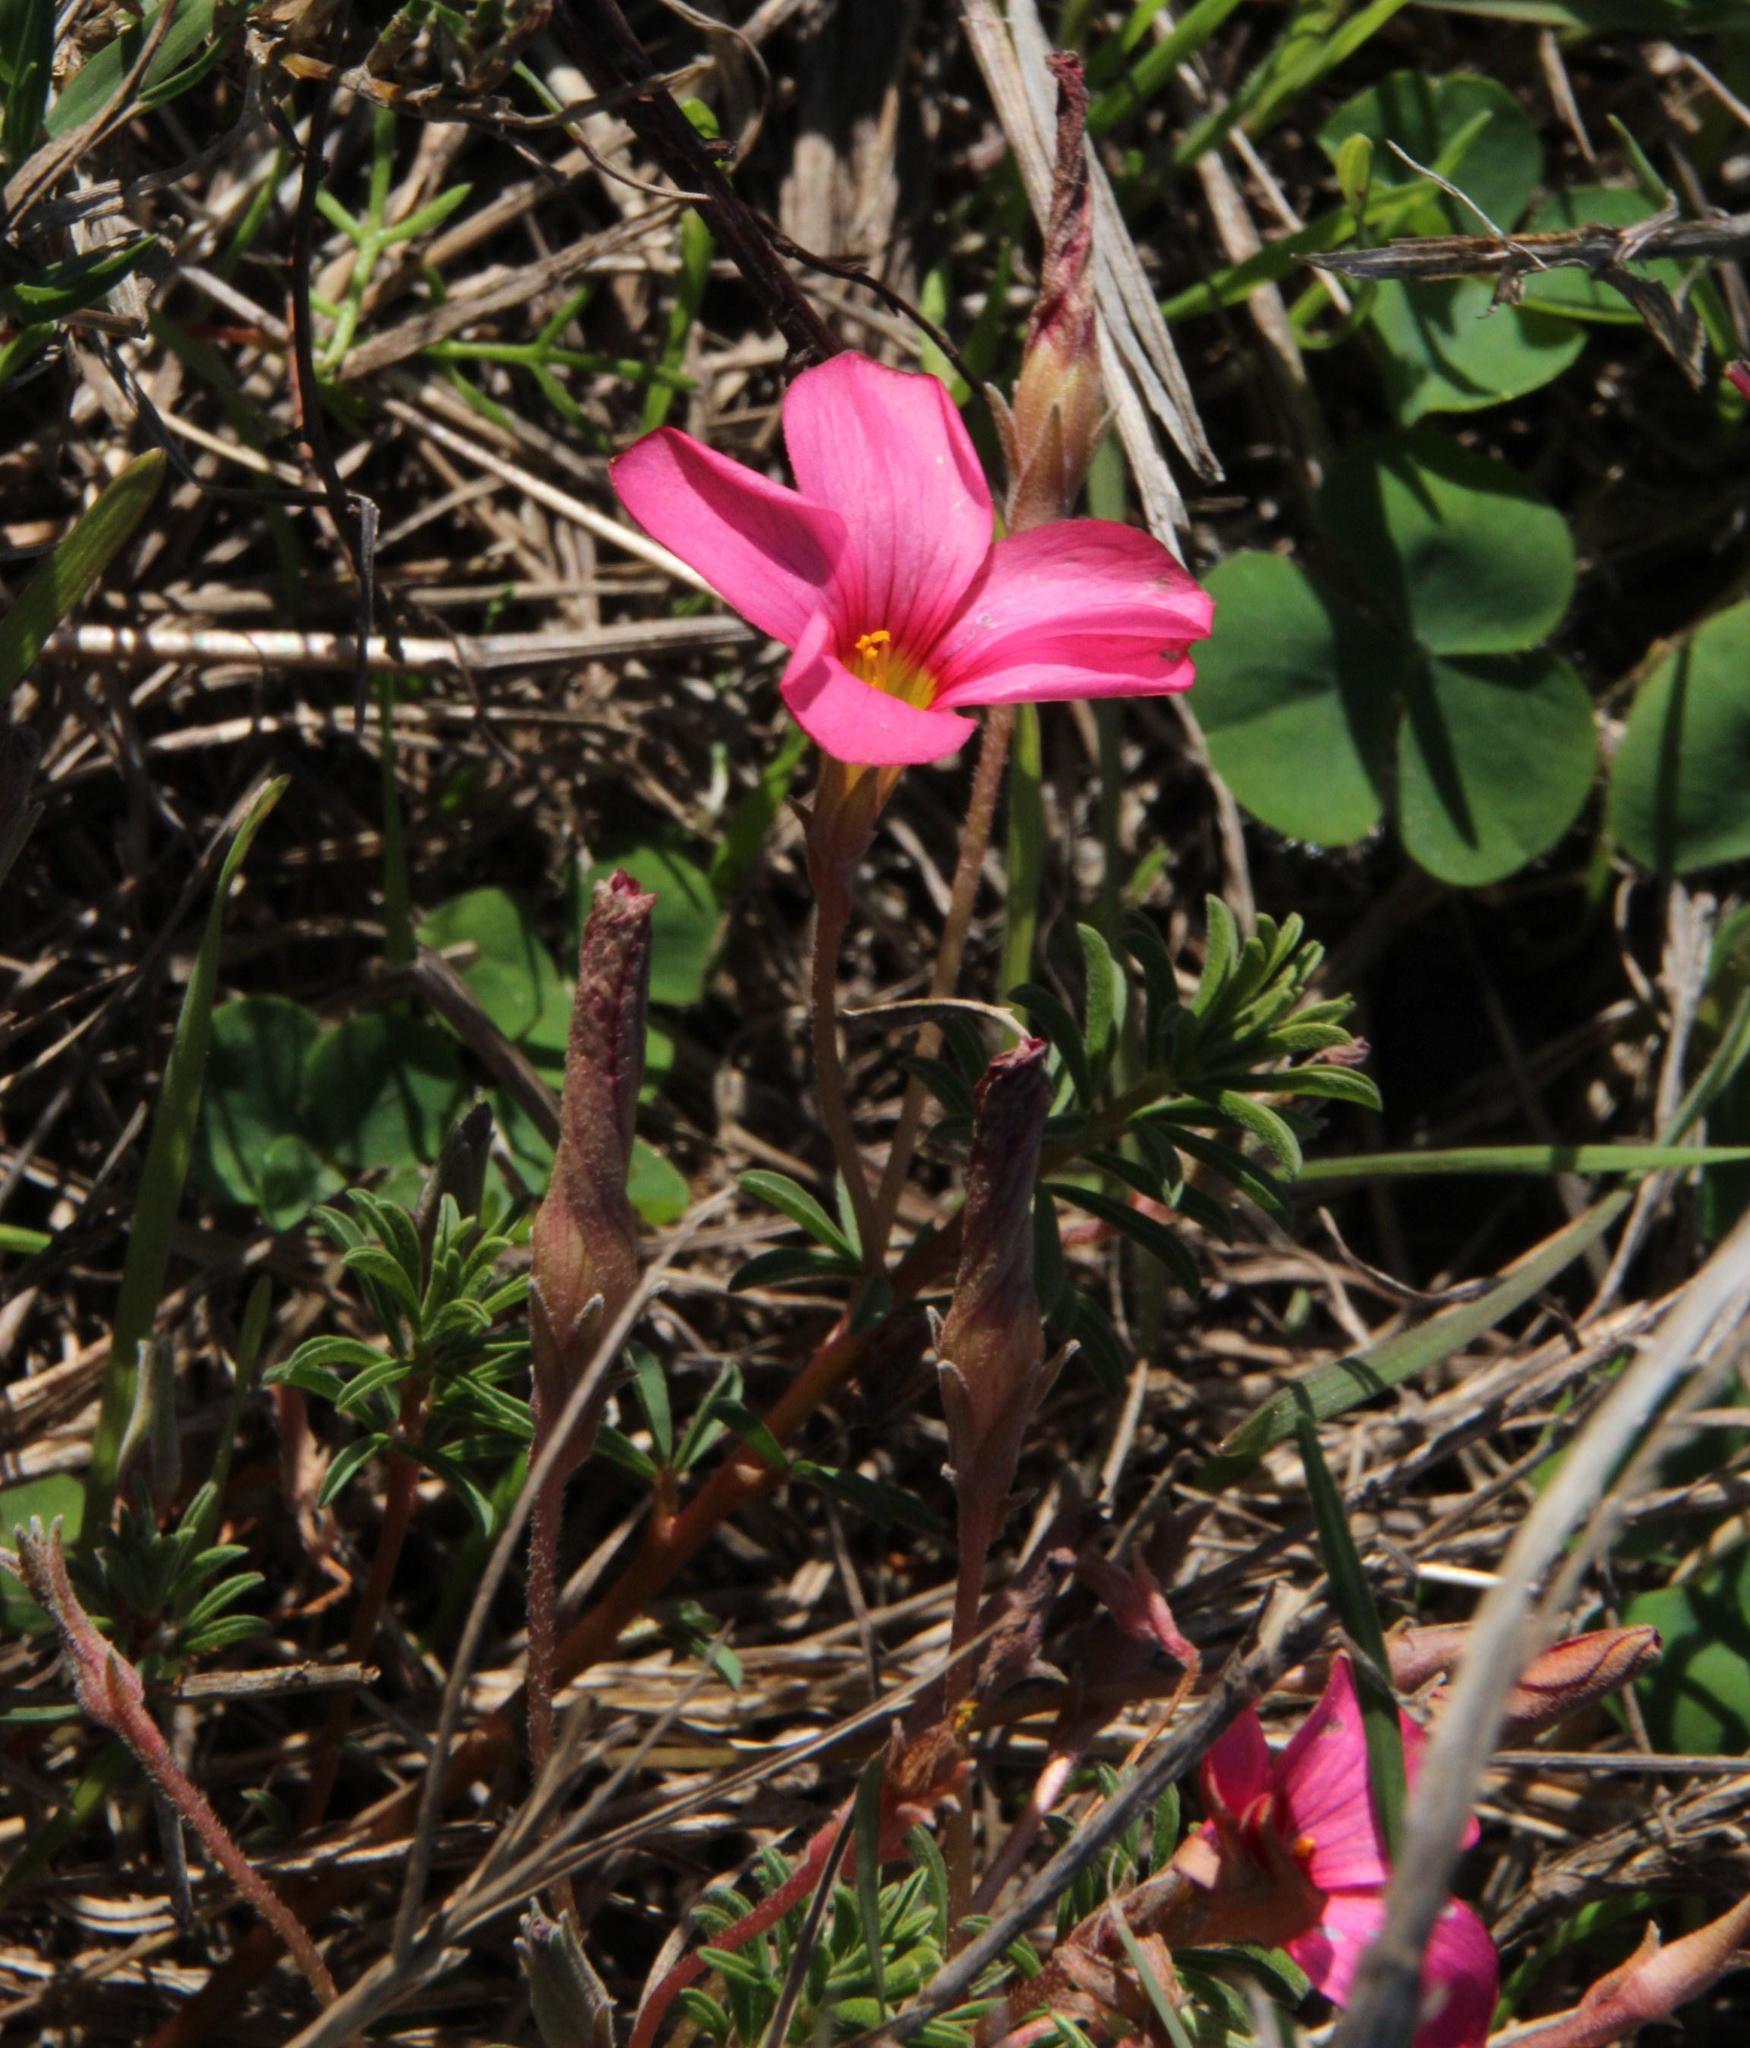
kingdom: Plantae
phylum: Tracheophyta
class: Magnoliopsida
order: Oxalidales
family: Oxalidaceae
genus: Oxalis
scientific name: Oxalis hirta
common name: Tropical woodsorrel
